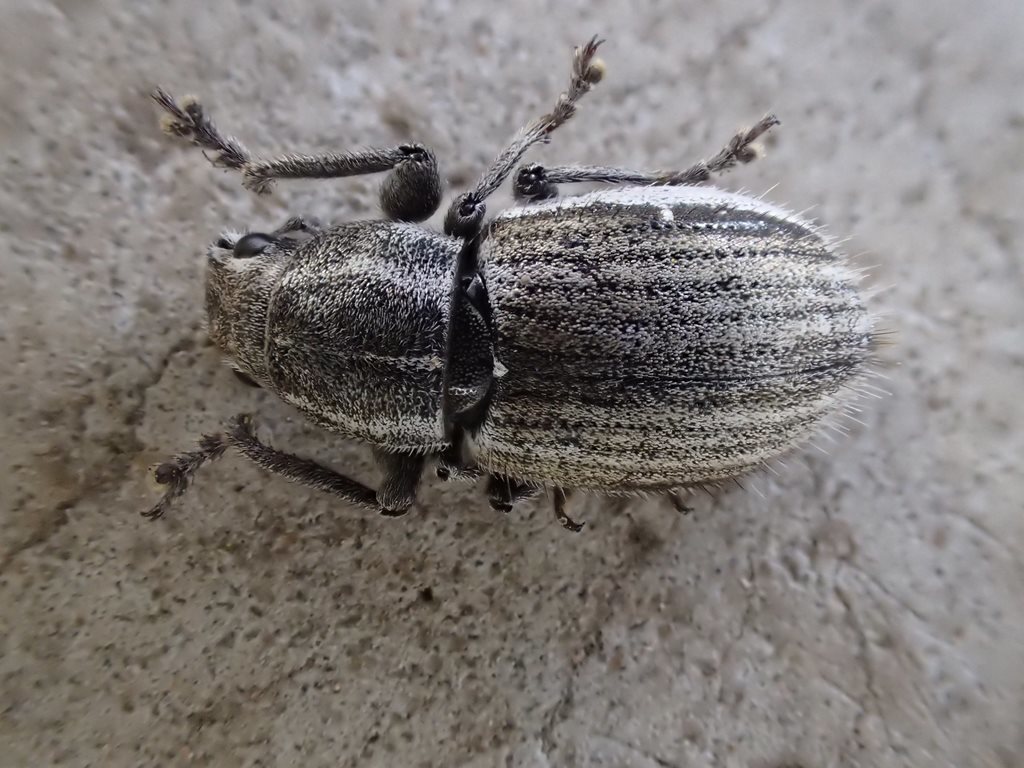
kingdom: Animalia
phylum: Arthropoda
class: Insecta
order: Coleoptera
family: Curculionidae
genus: Naupactus
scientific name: Naupactus leucoloma
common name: Whitefringed beetle
